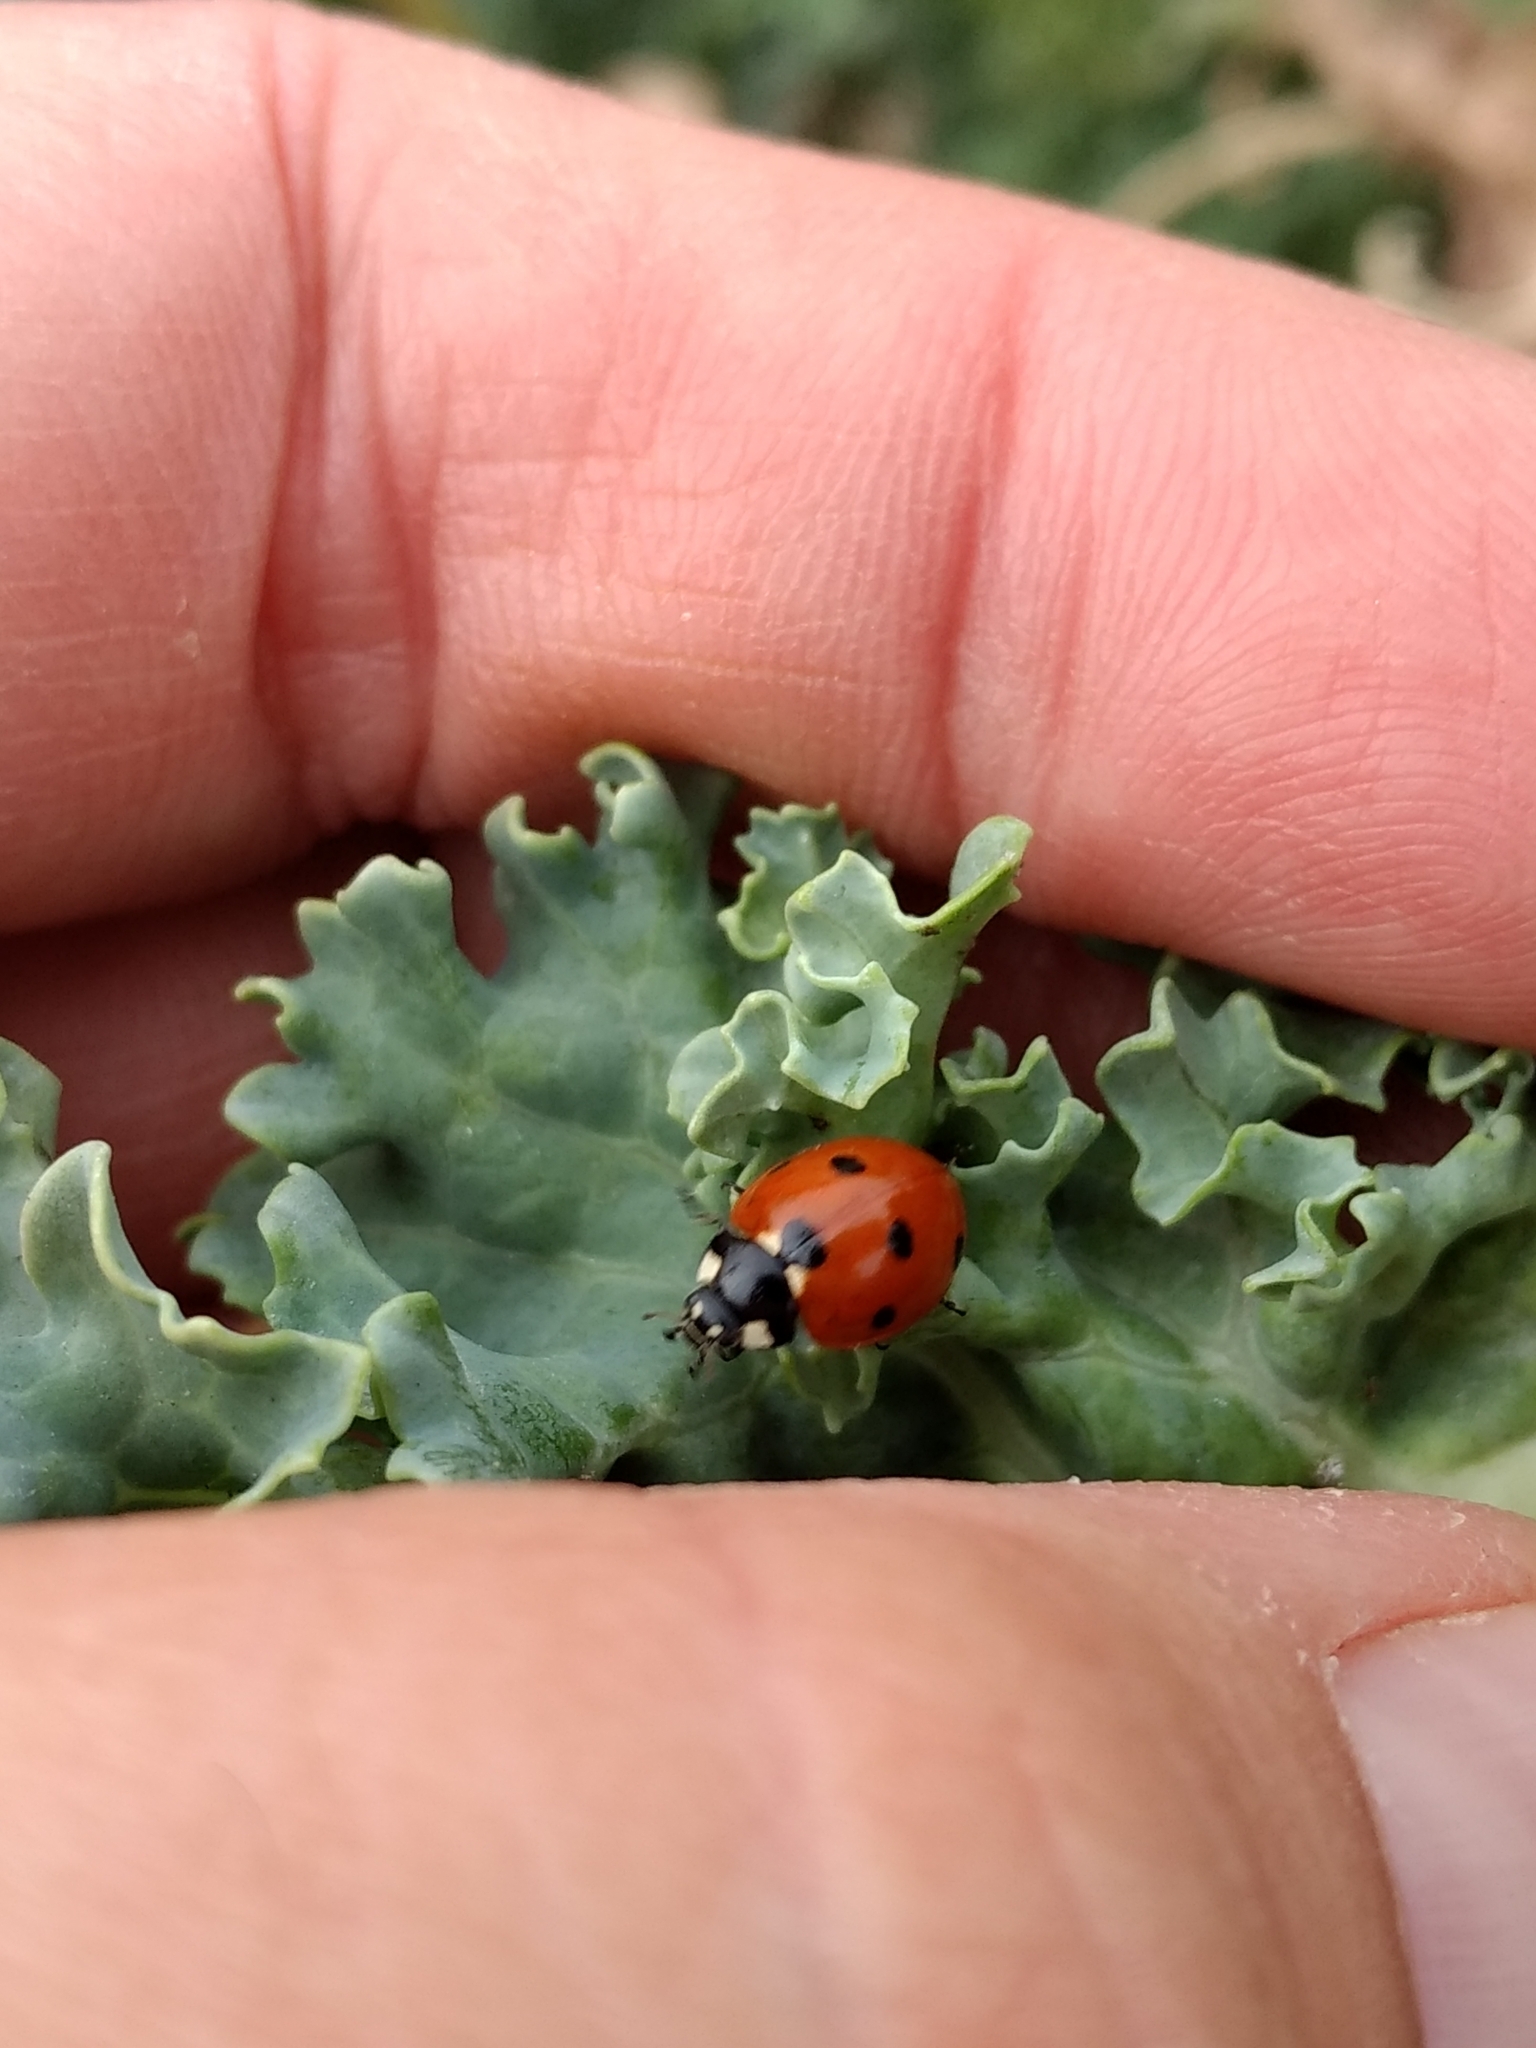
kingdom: Animalia
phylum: Arthropoda
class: Insecta
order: Coleoptera
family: Coccinellidae
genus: Coccinella
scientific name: Coccinella septempunctata
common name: Sevenspotted lady beetle
